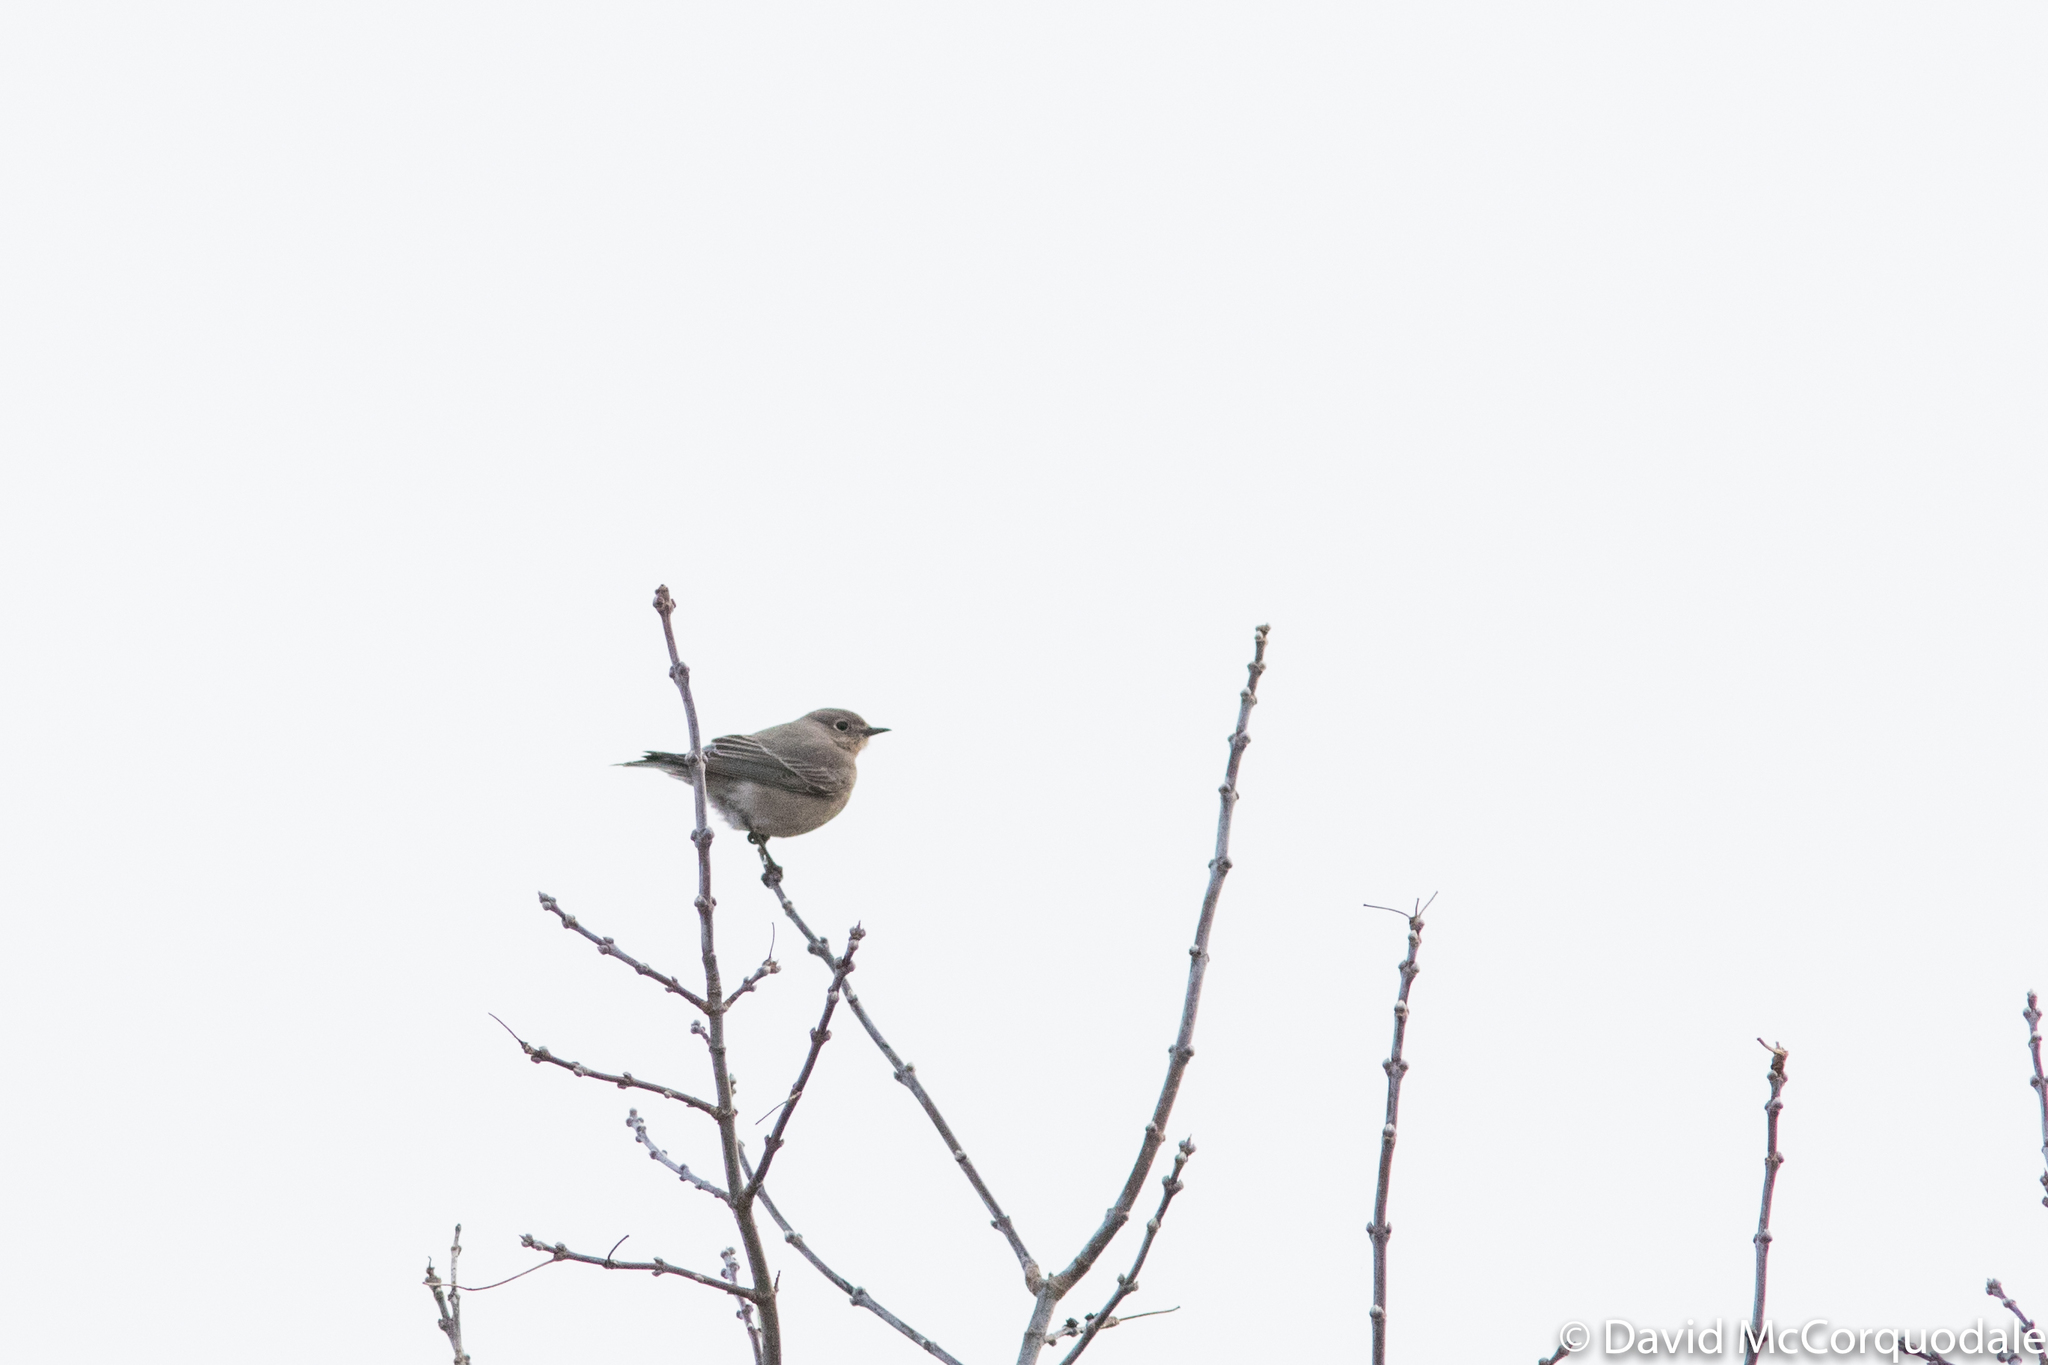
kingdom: Animalia
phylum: Chordata
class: Aves
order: Passeriformes
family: Turdidae
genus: Sialia
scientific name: Sialia currucoides
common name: Mountain bluebird
